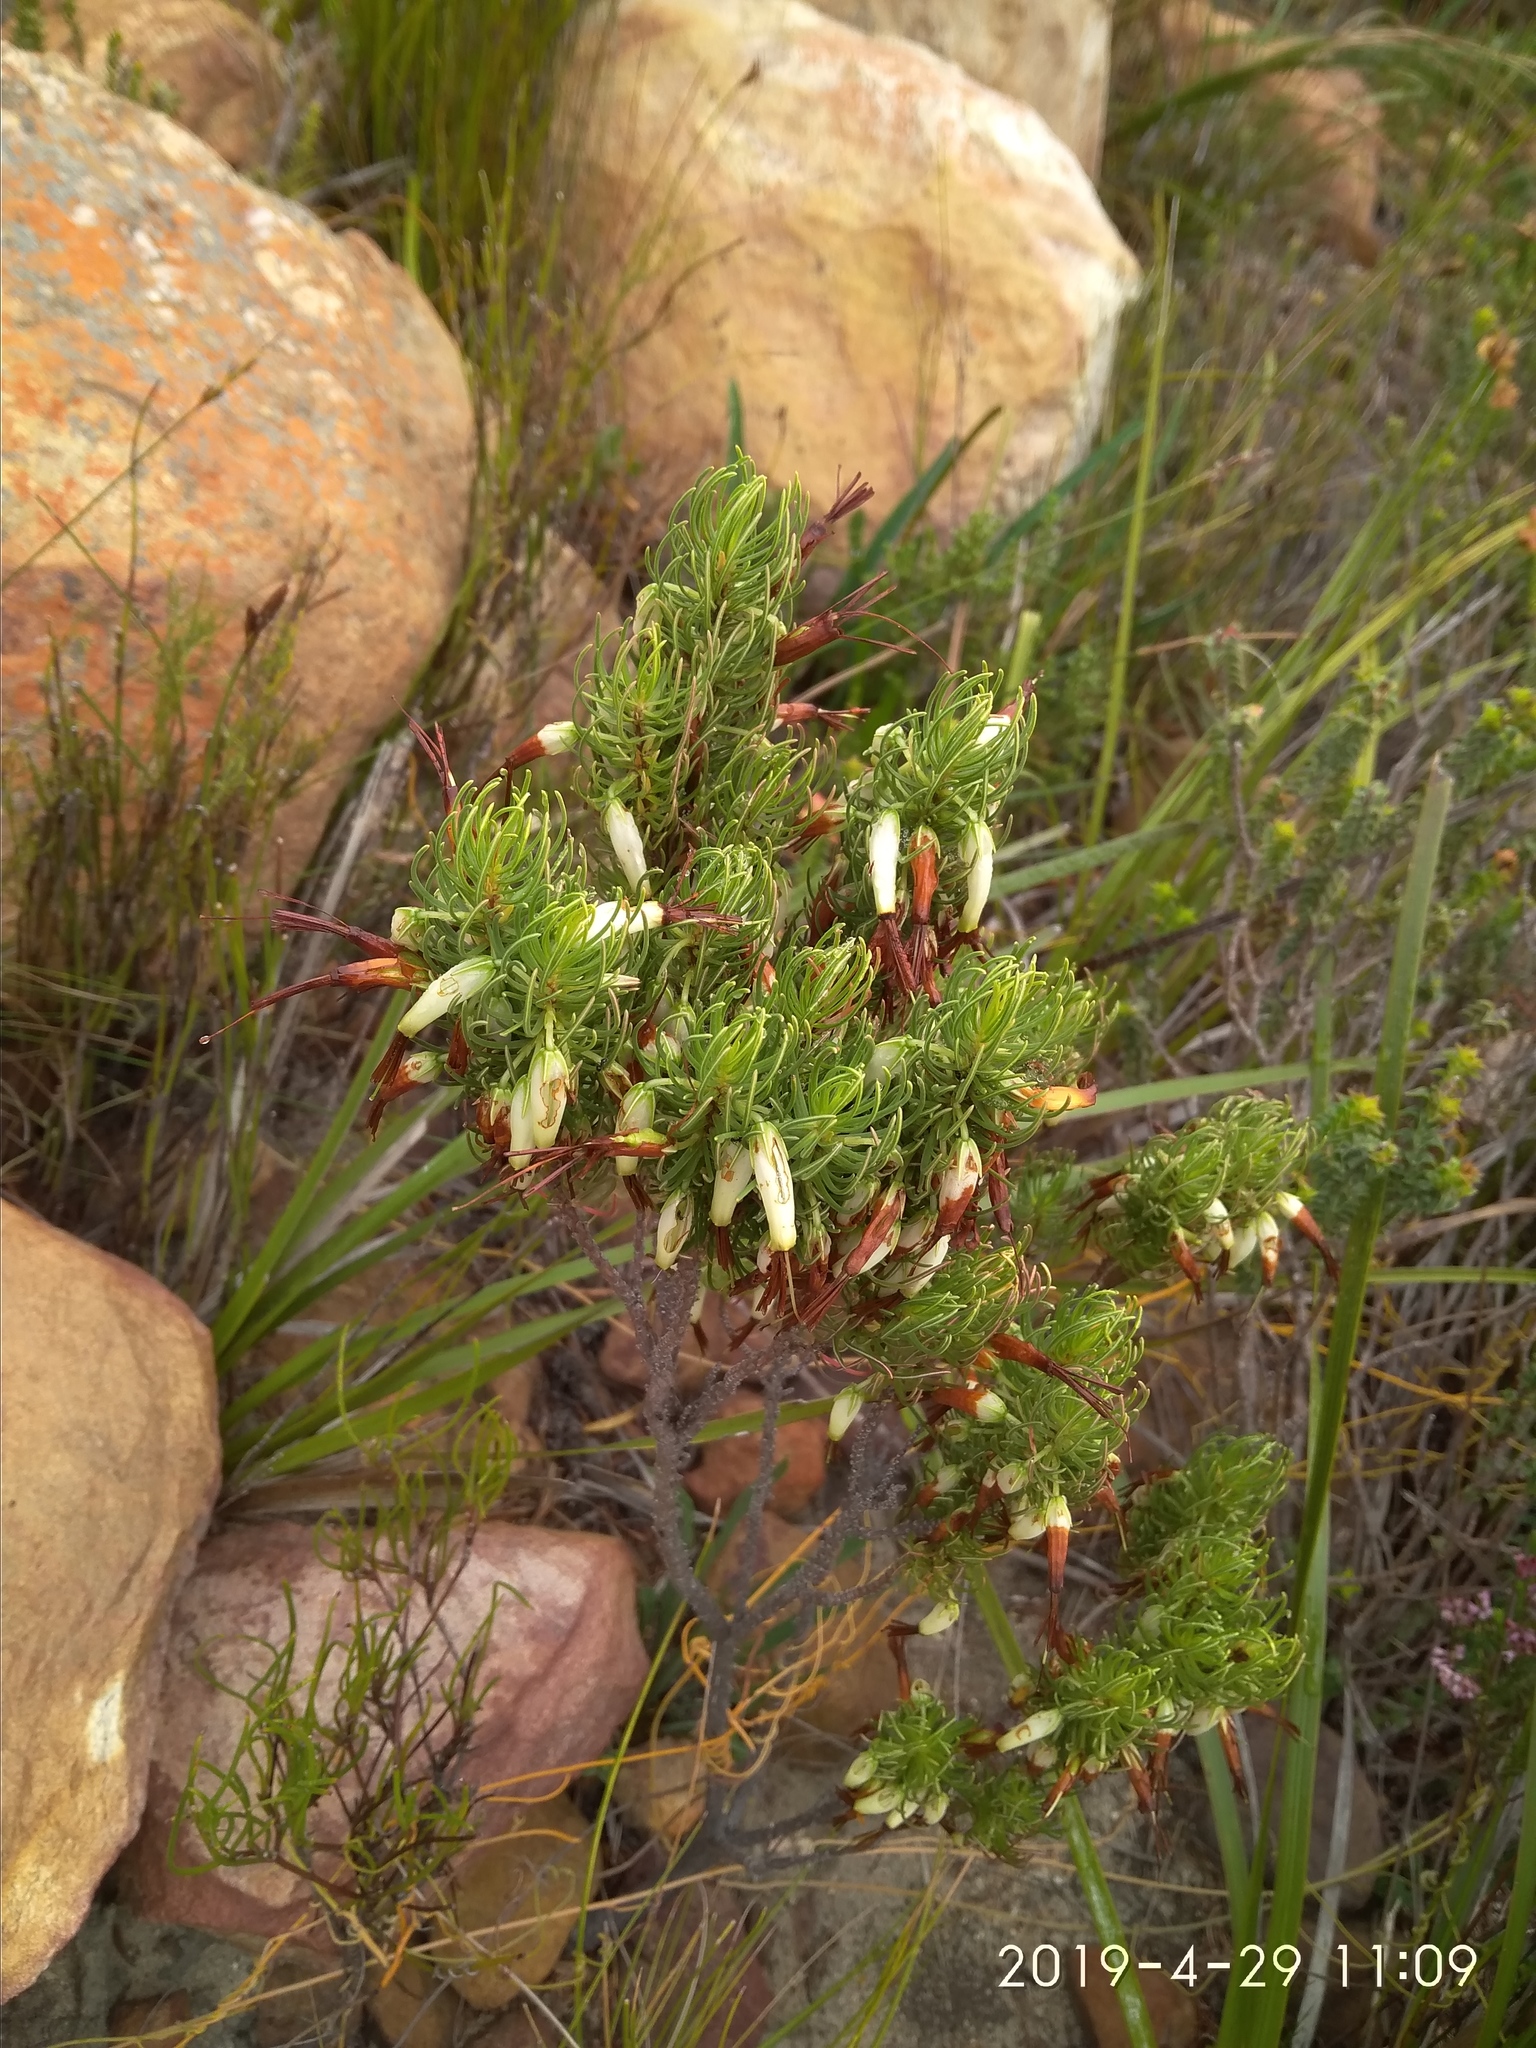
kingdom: Plantae
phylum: Tracheophyta
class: Magnoliopsida
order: Ericales
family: Ericaceae
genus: Erica
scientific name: Erica plukenetii
